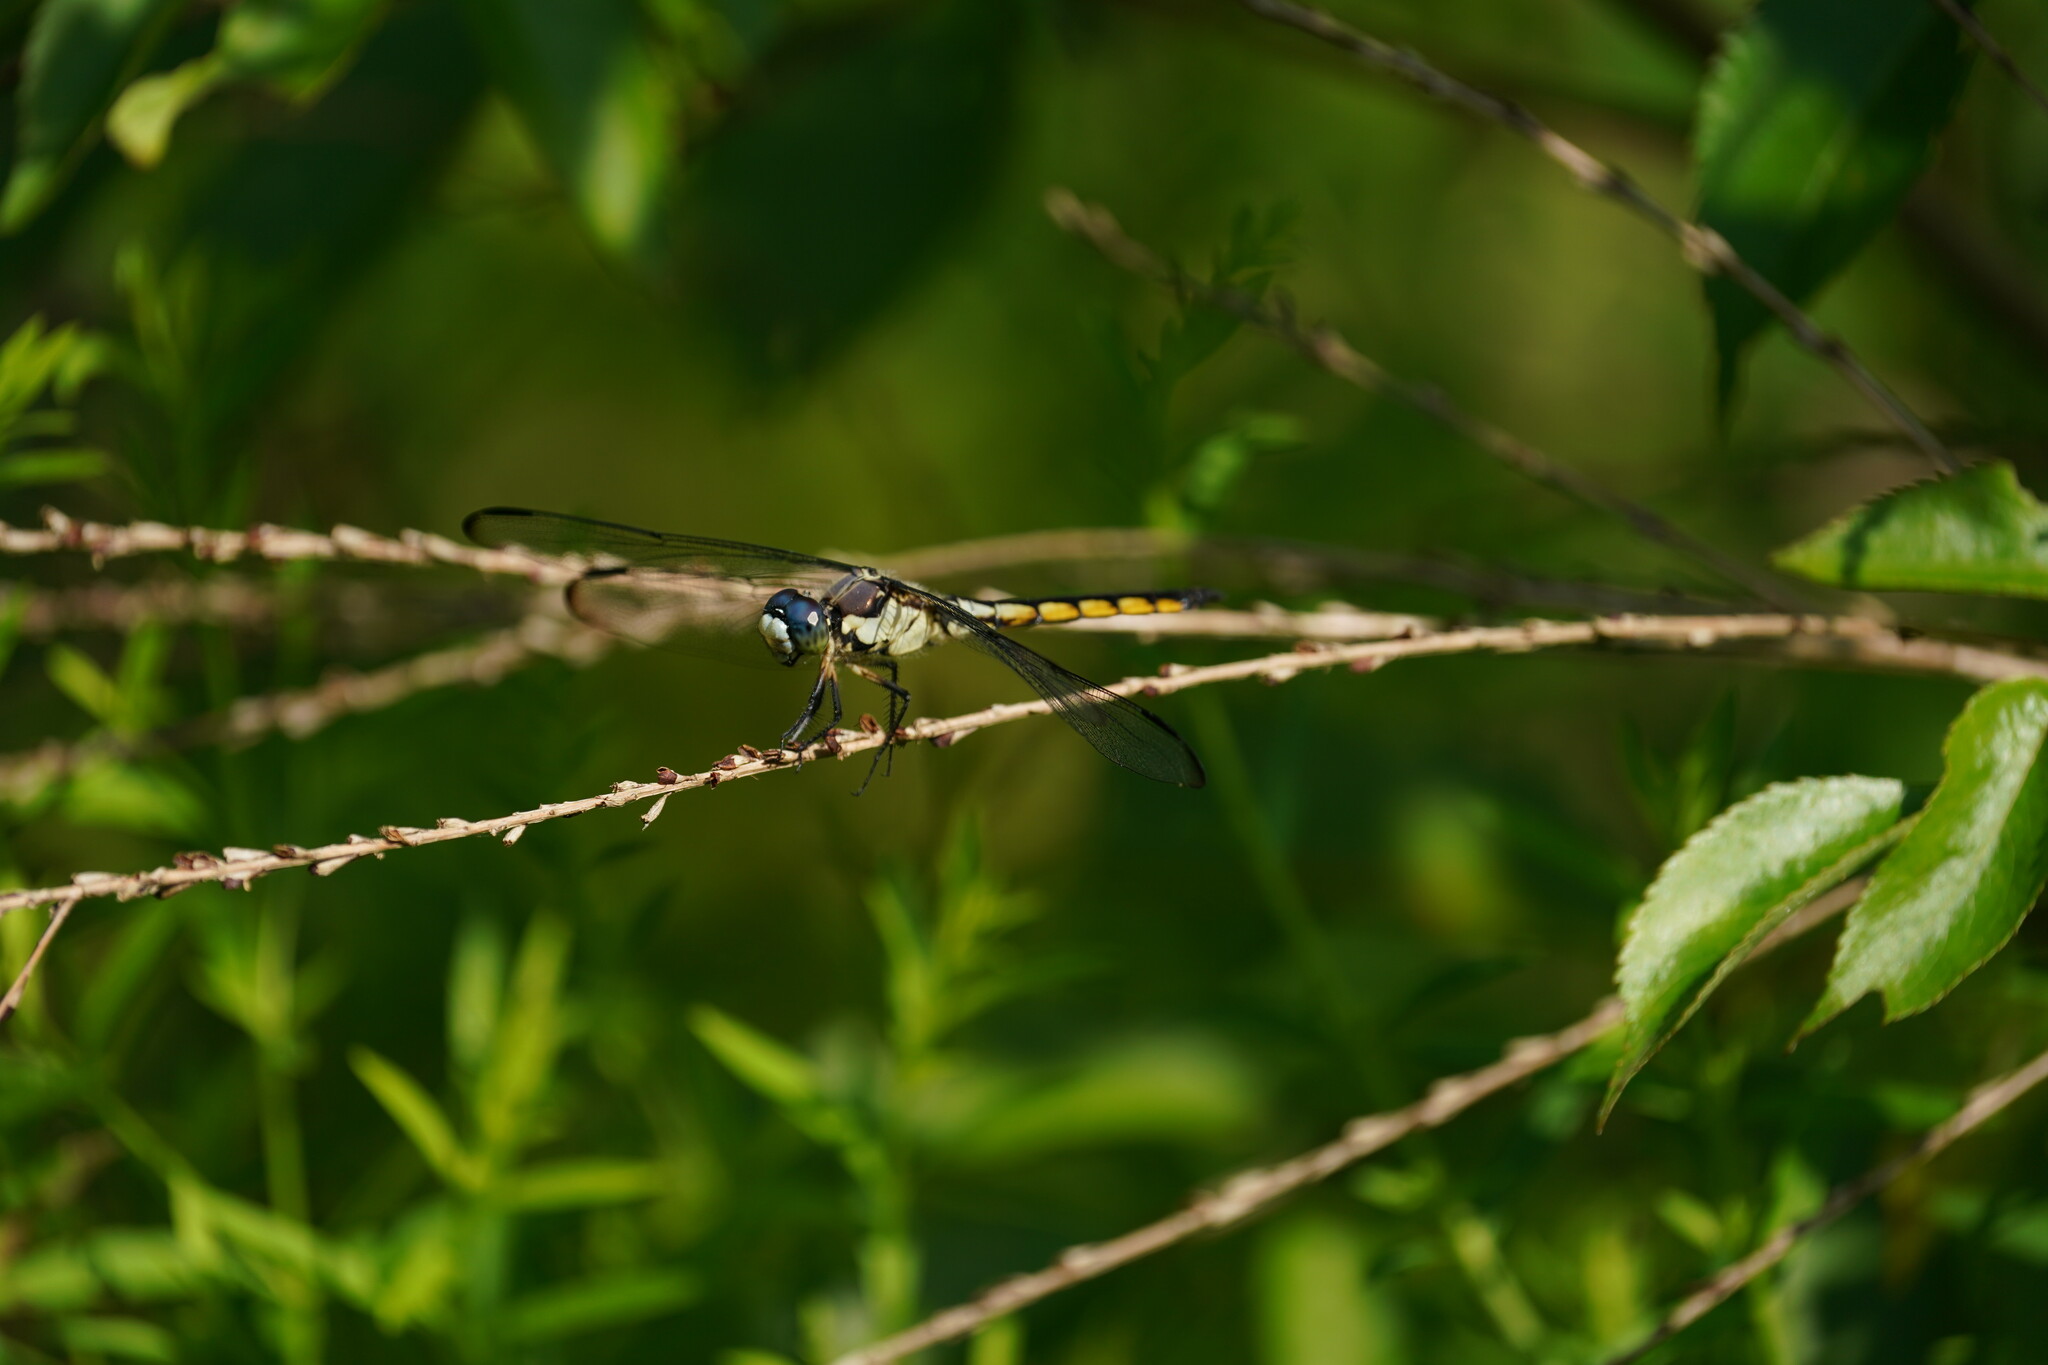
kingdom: Animalia
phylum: Arthropoda
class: Insecta
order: Odonata
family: Libellulidae
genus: Libellula
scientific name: Libellula vibrans
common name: Great blue skimmer
